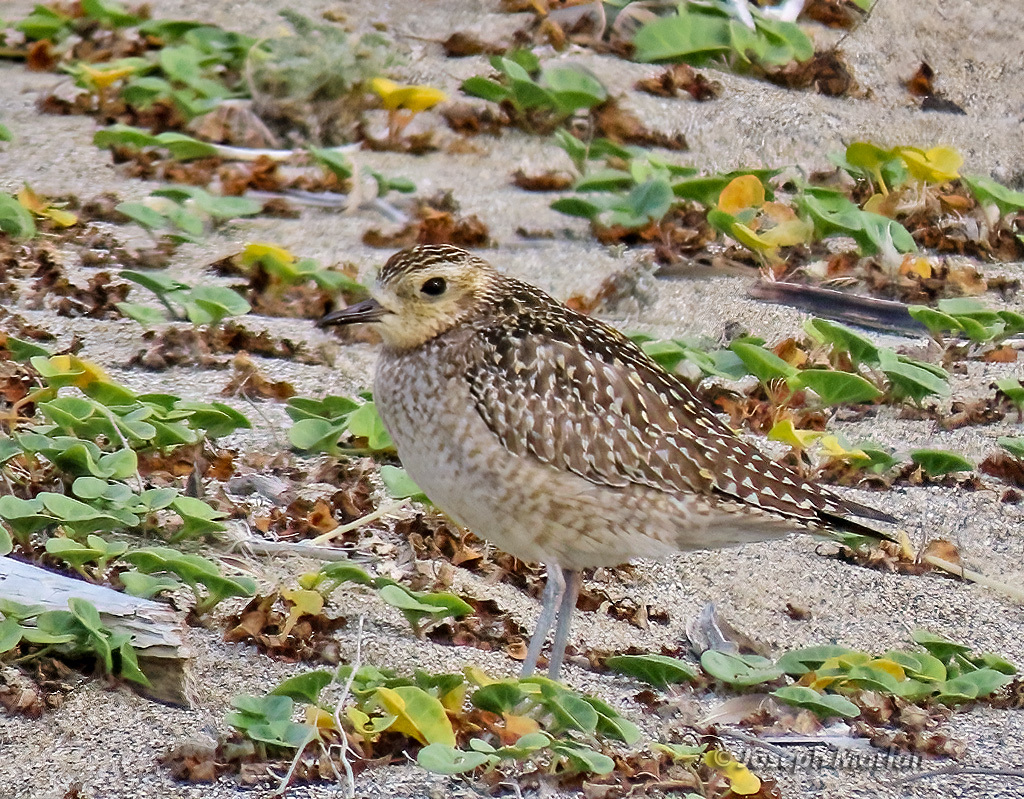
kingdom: Animalia
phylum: Chordata
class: Aves
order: Charadriiformes
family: Charadriidae
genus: Pluvialis
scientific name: Pluvialis fulva
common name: Pacific golden plover
